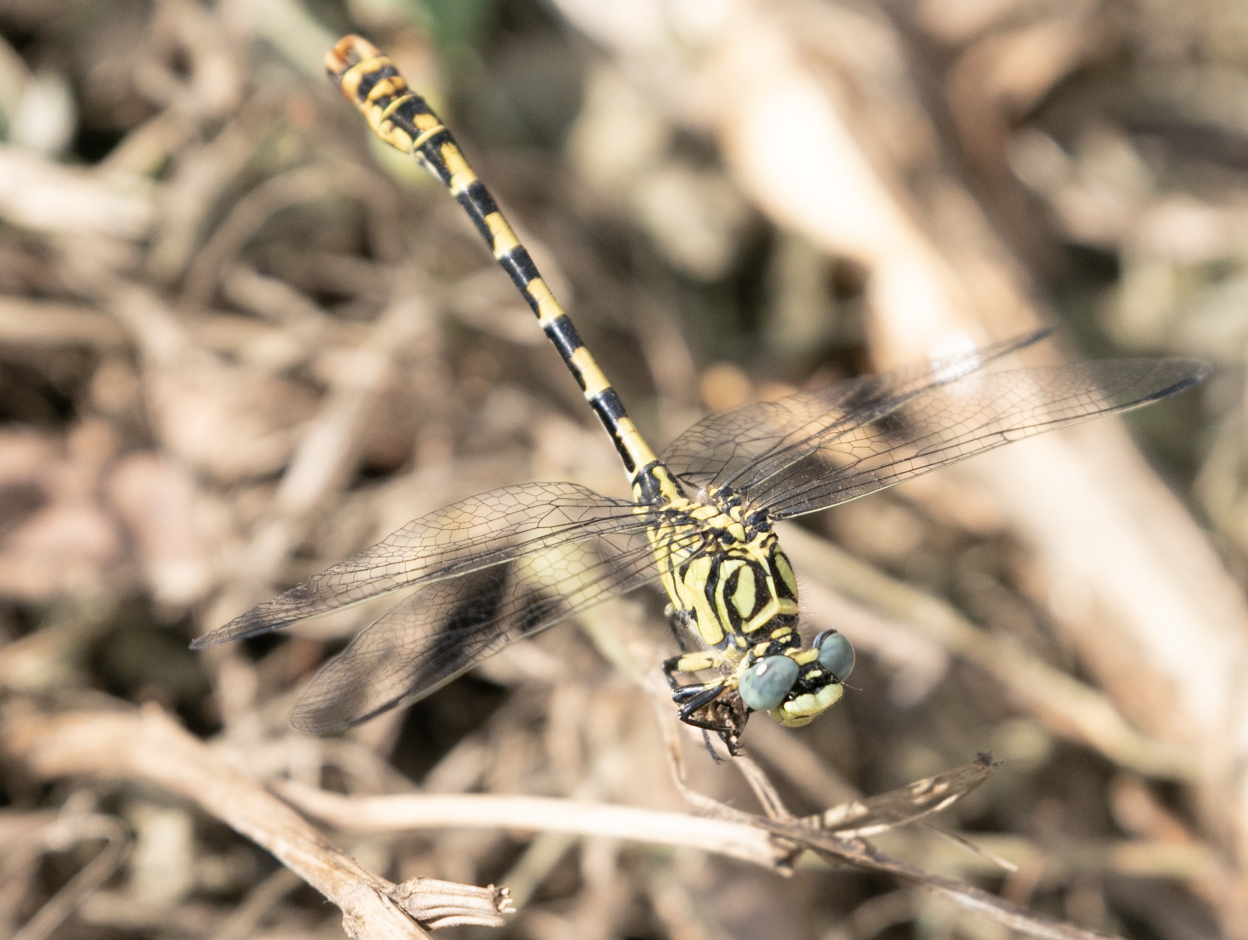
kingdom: Animalia
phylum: Arthropoda
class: Insecta
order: Odonata
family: Gomphidae
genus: Onychogomphus
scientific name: Onychogomphus forcipatus
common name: Small pincertail
